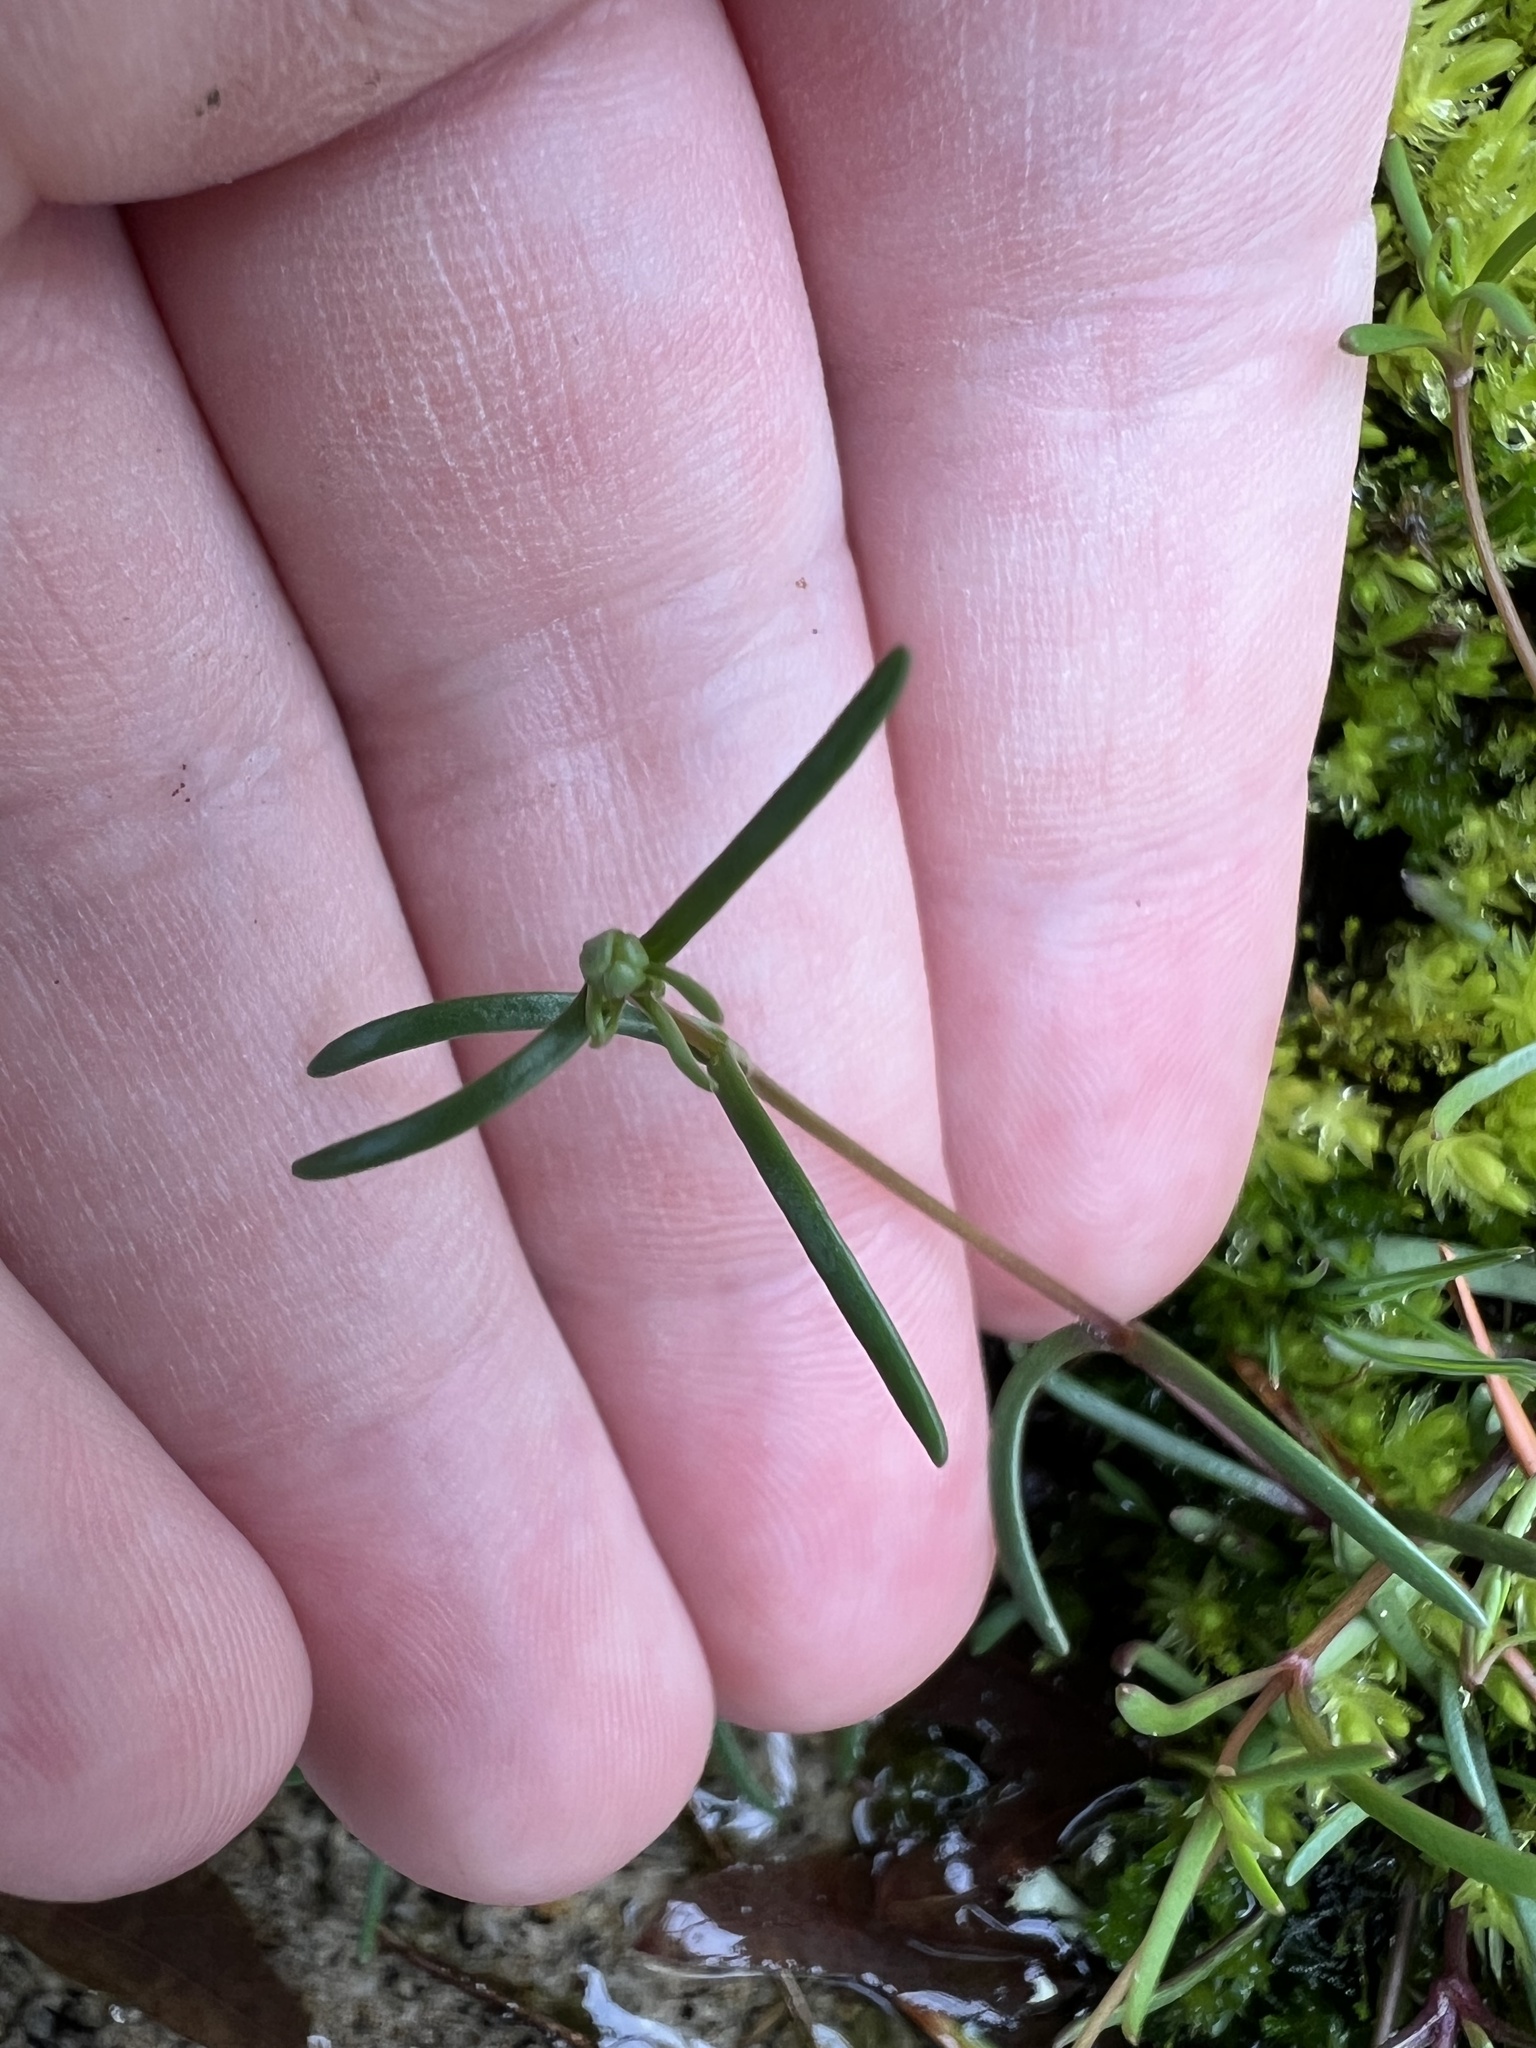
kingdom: Plantae
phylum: Tracheophyta
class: Magnoliopsida
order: Caryophyllales
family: Caryophyllaceae
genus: Geocarpon
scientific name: Geocarpon glabrum
